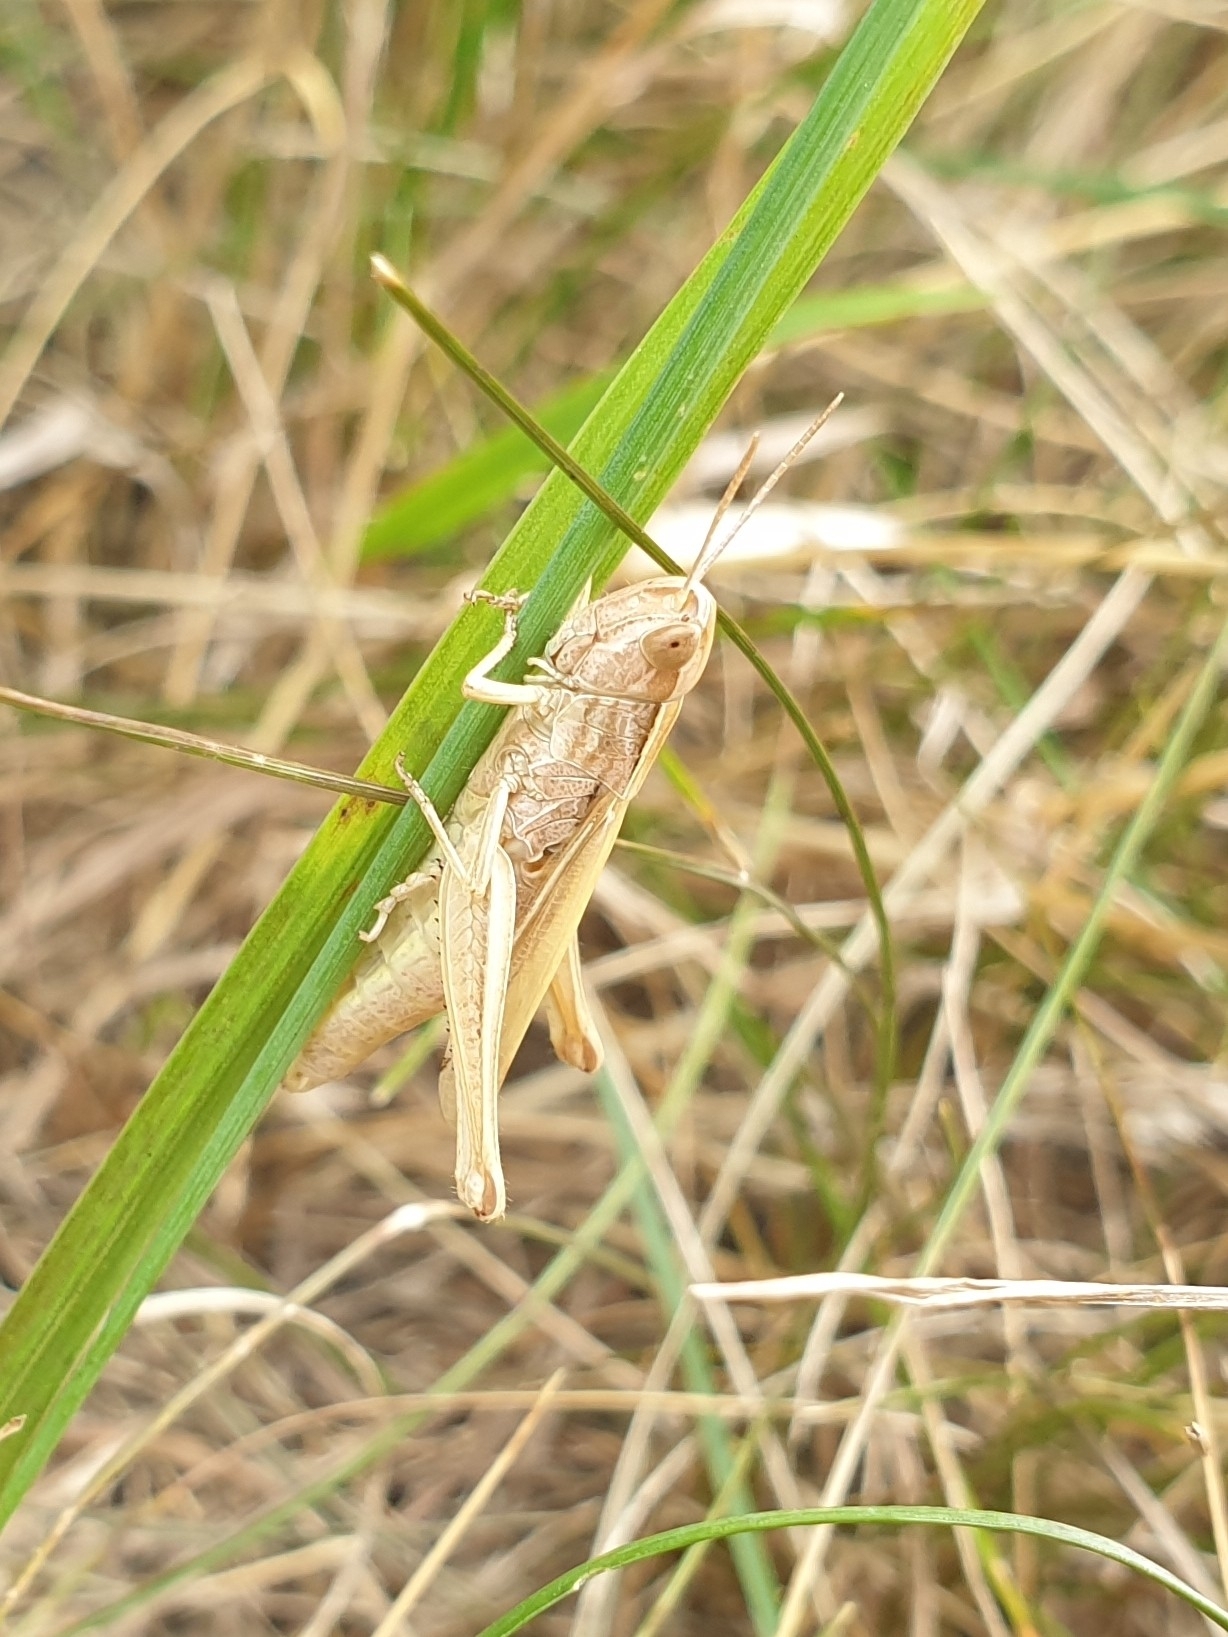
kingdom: Animalia
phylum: Arthropoda
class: Insecta
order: Orthoptera
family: Acrididae
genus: Chorthippus
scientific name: Chorthippus albomarginatus
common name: Lesser marsh grasshopper
